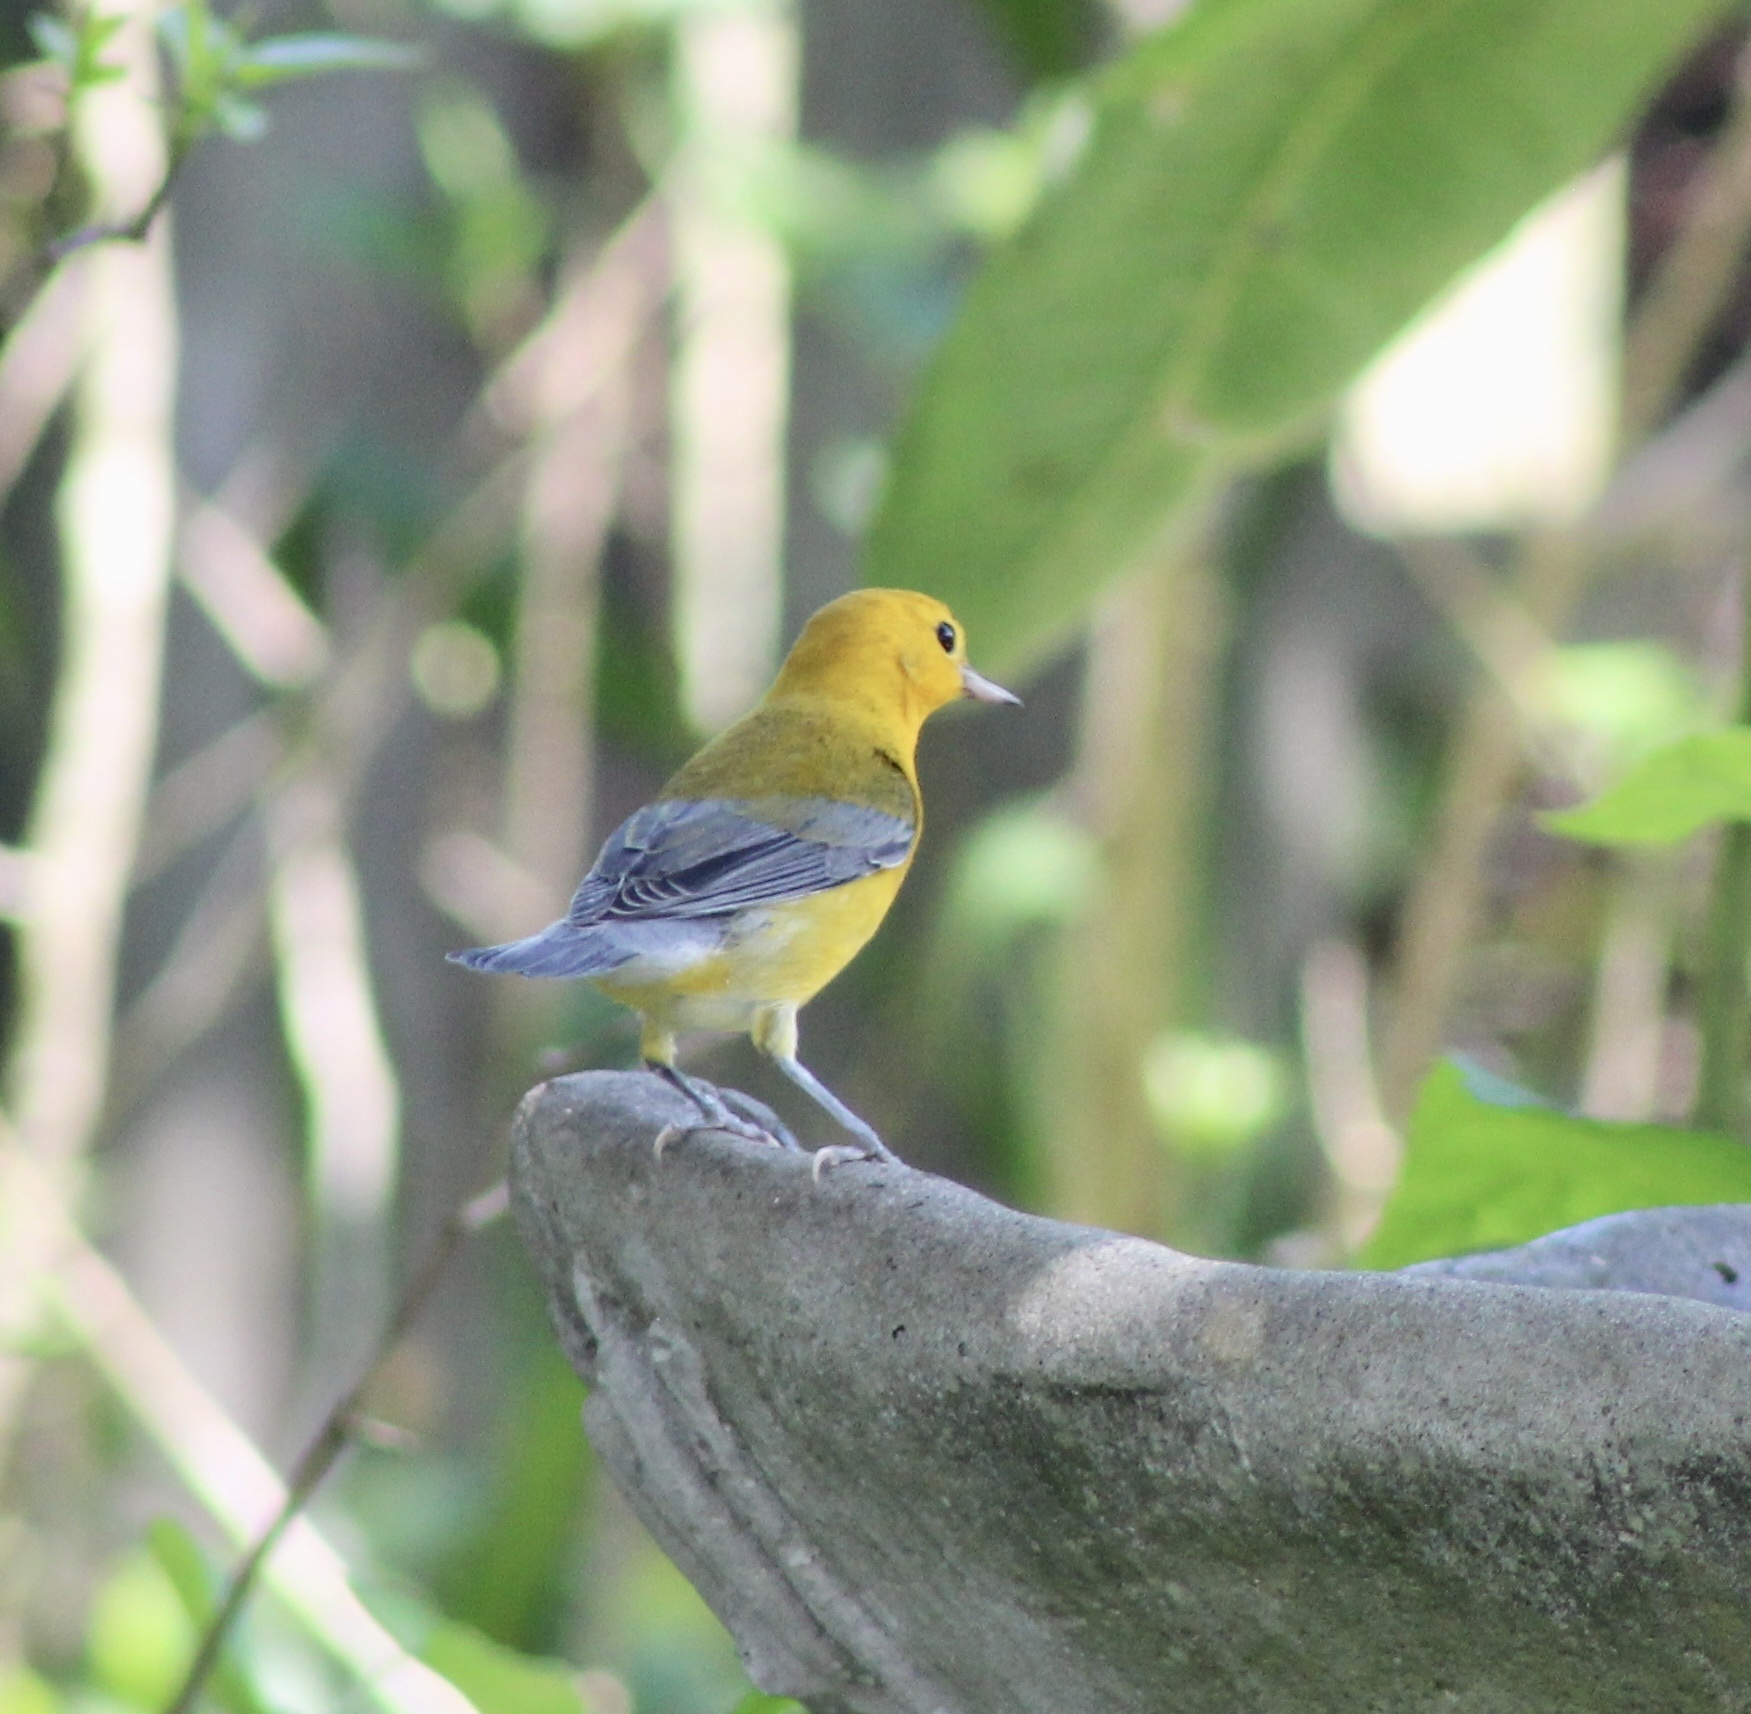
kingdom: Animalia
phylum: Chordata
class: Aves
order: Passeriformes
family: Parulidae
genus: Protonotaria
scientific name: Protonotaria citrea
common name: Prothonotary warbler
